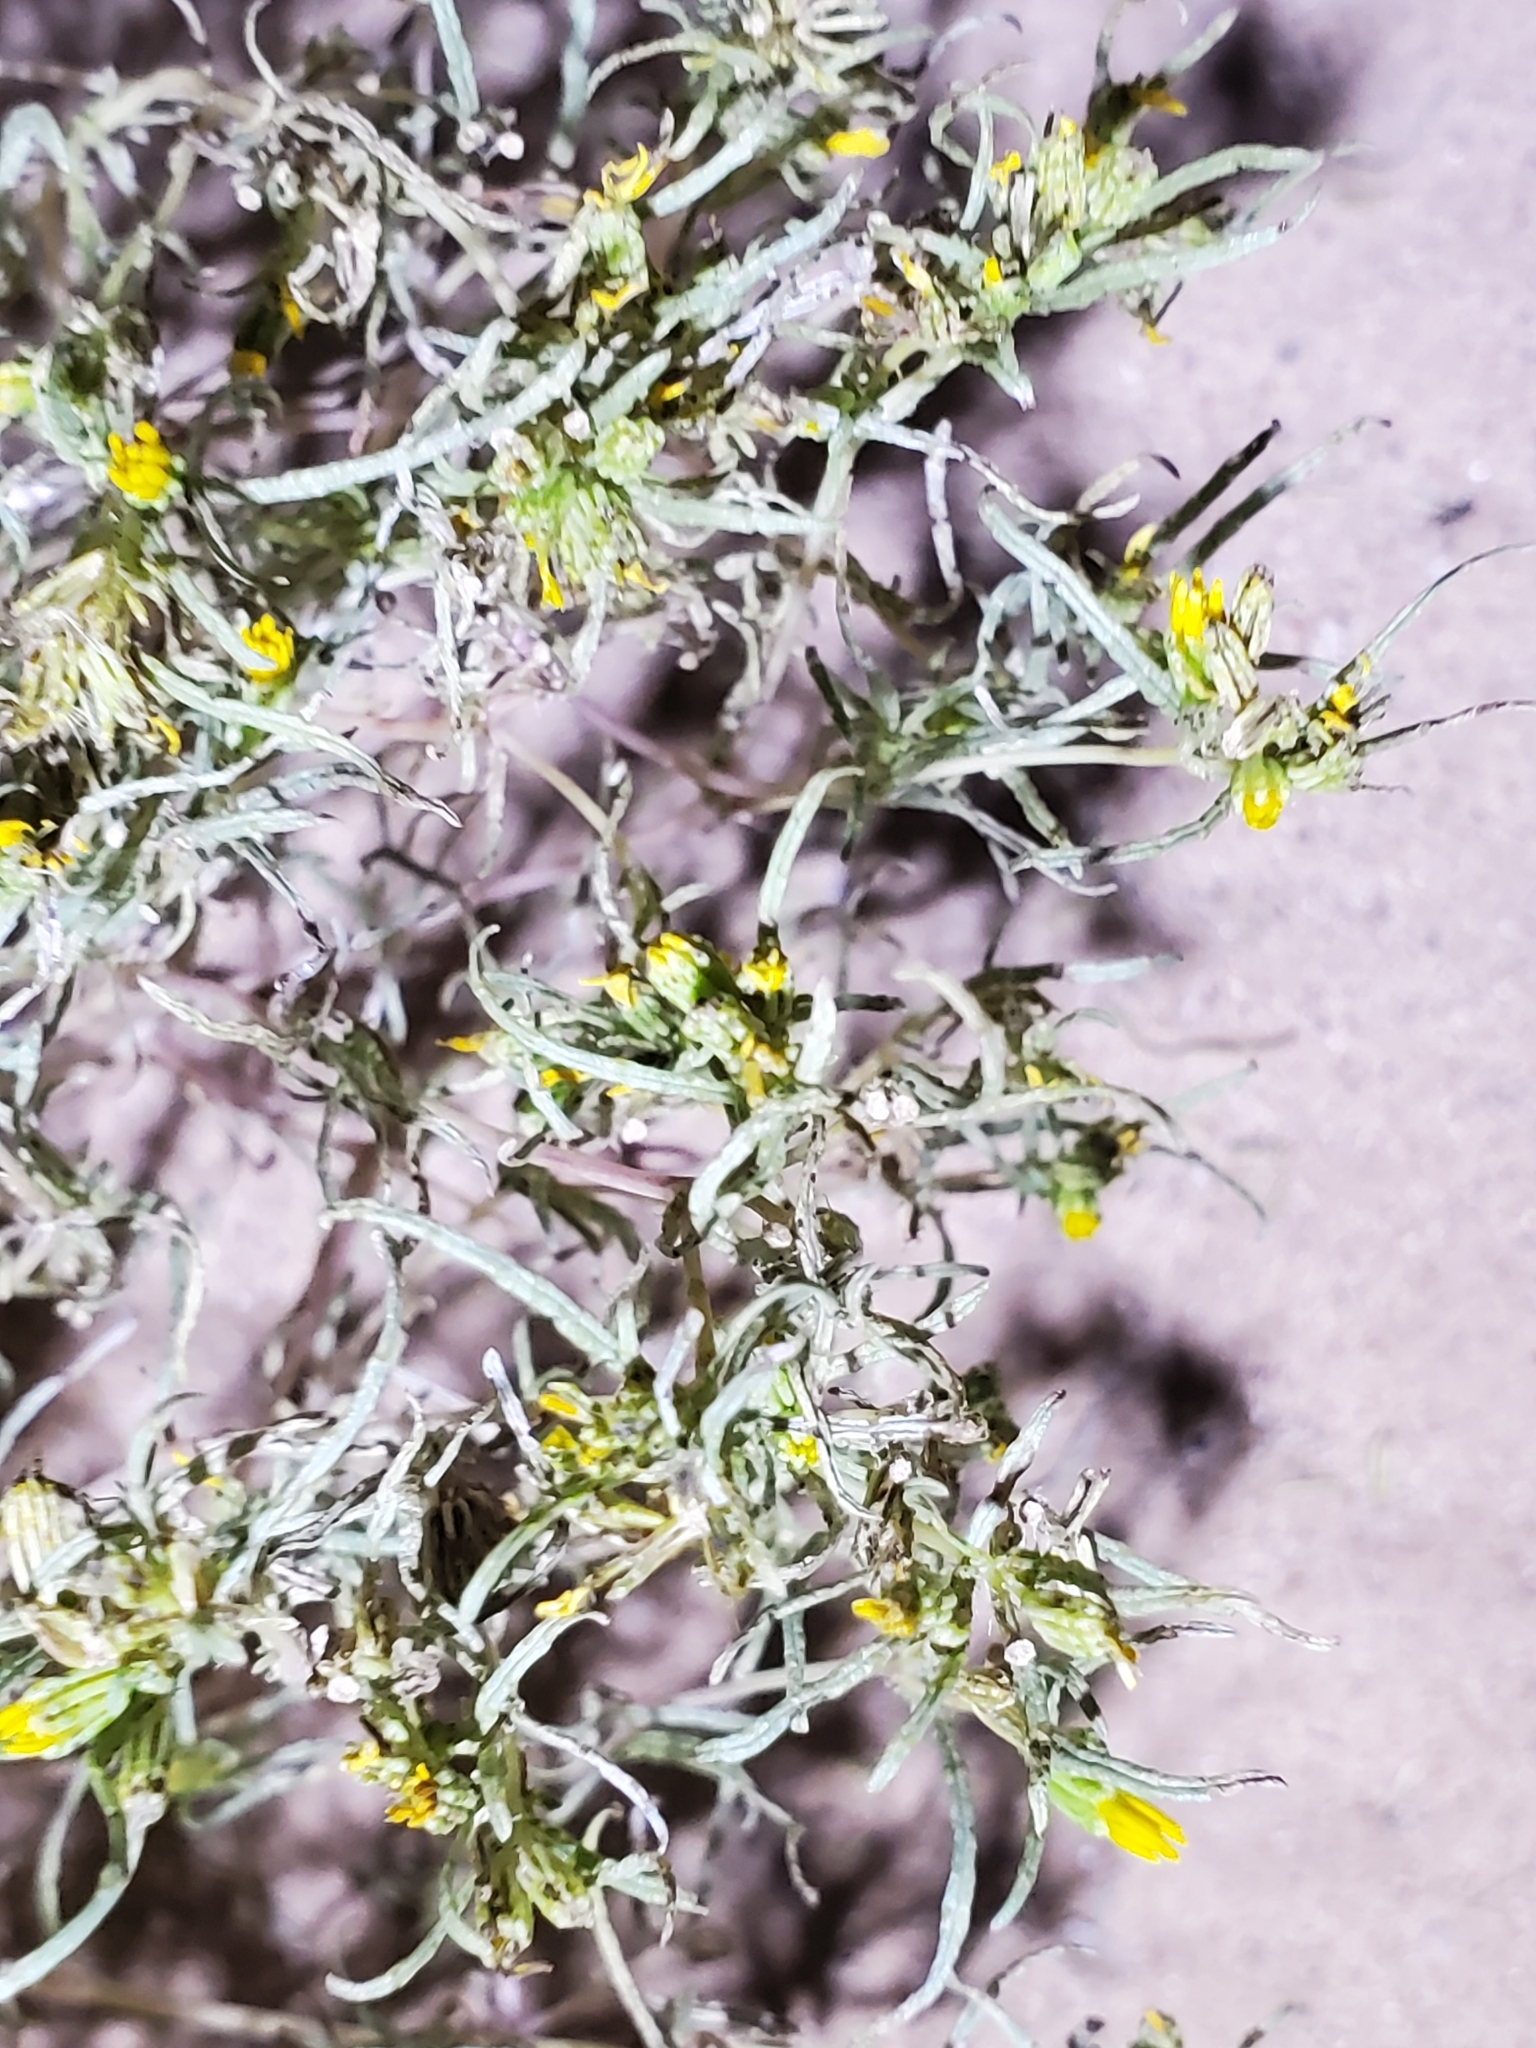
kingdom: Plantae
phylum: Tracheophyta
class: Magnoliopsida
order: Asterales
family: Asteraceae
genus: Pectis
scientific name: Pectis papposa
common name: Many-bristle chinchweed
